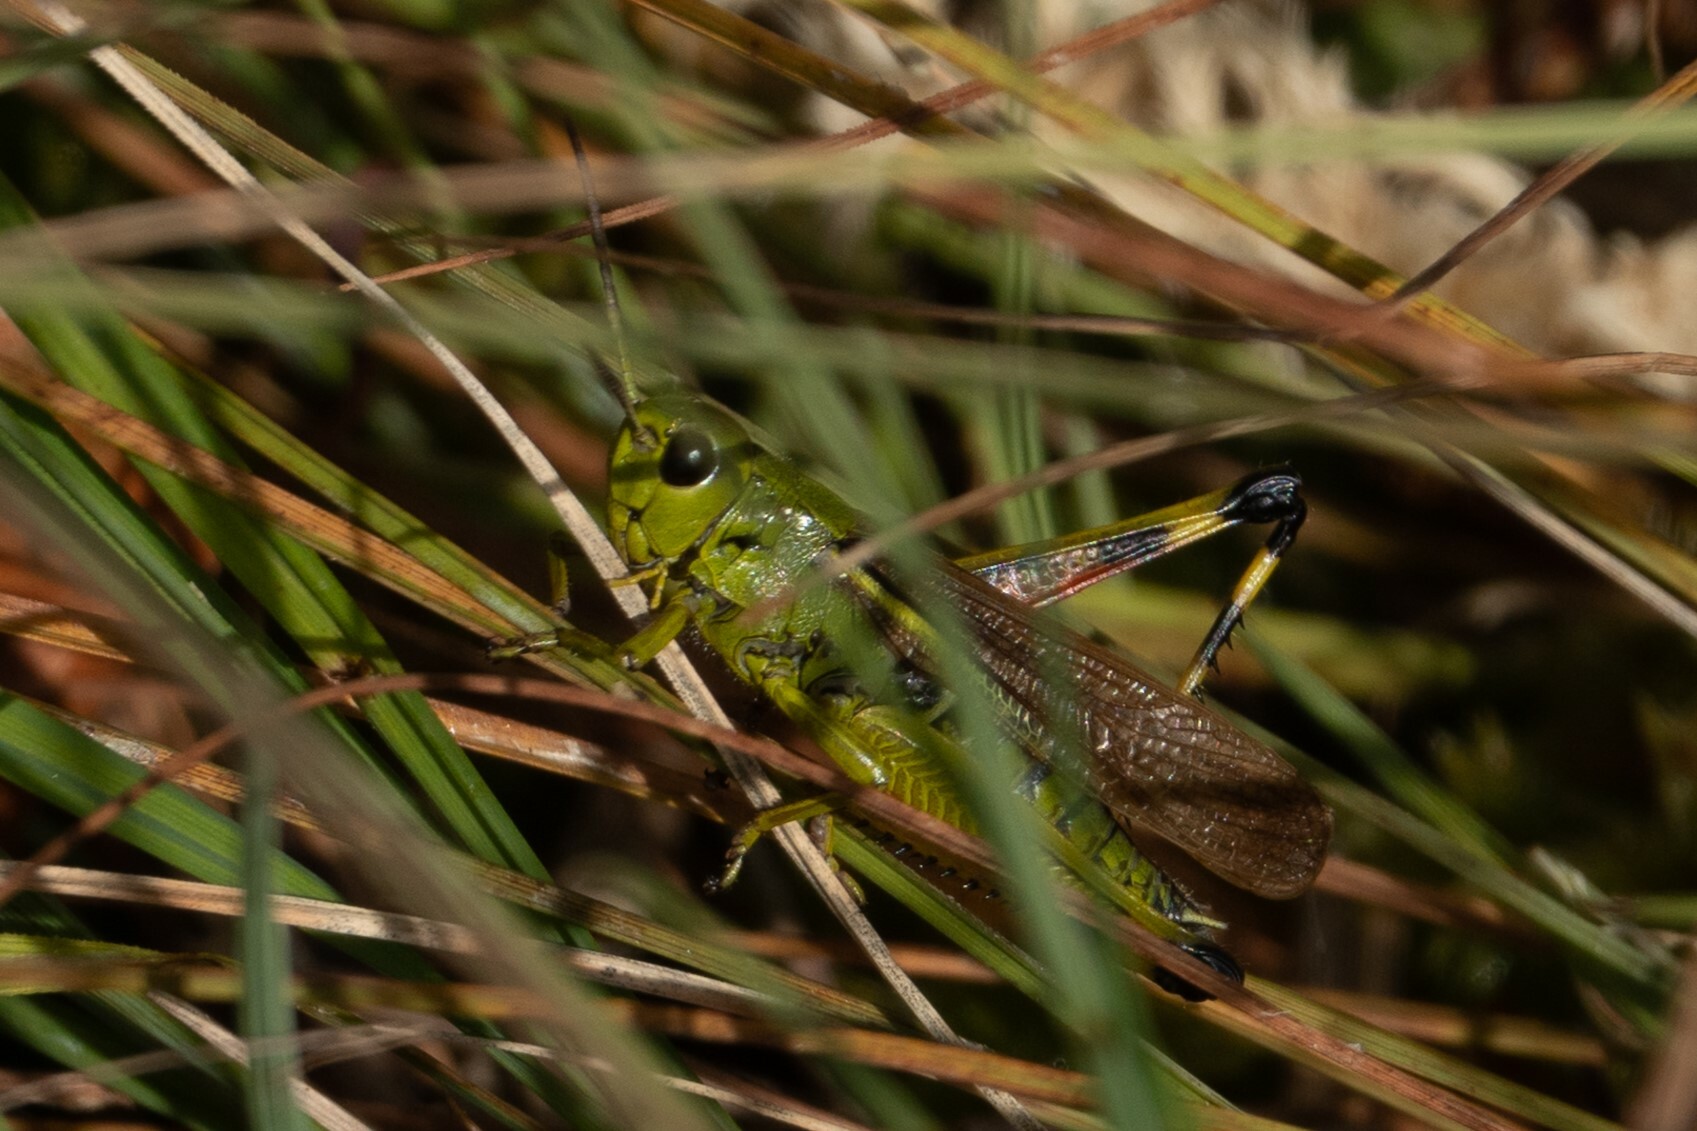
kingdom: Animalia
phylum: Arthropoda
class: Insecta
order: Orthoptera
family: Acrididae
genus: Stethophyma
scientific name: Stethophyma grossum
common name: Large marsh grasshopper
